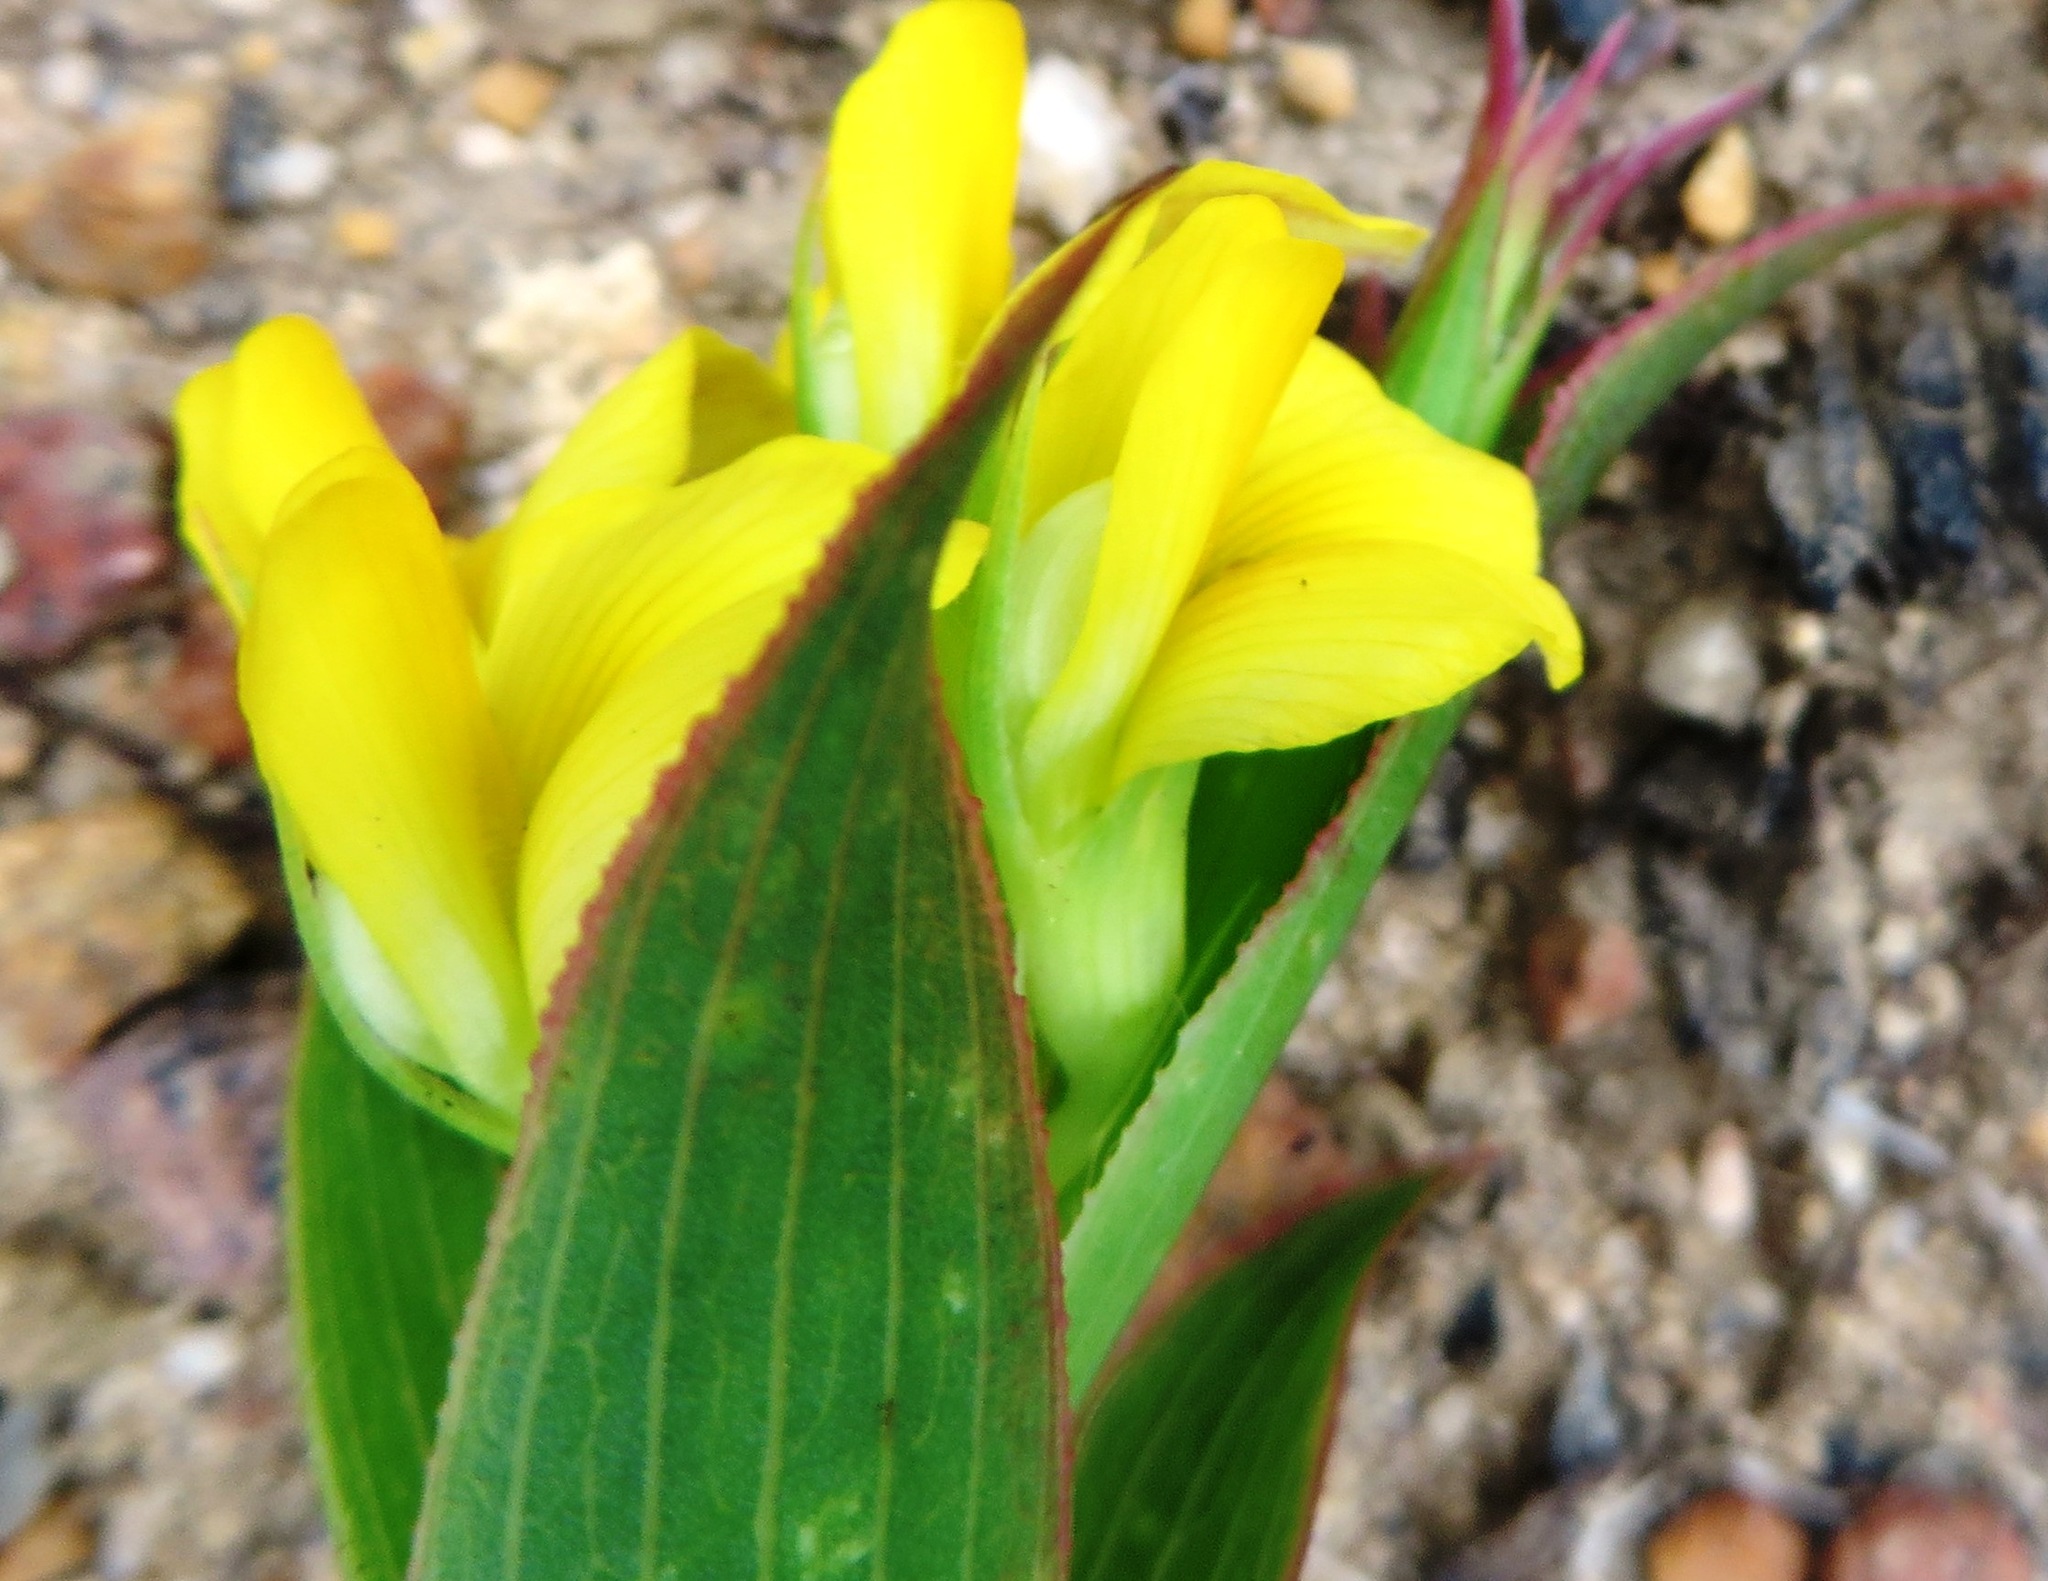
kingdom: Plantae
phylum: Tracheophyta
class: Magnoliopsida
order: Fabales
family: Fabaceae
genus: Aspalathus
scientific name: Aspalathus crenata
